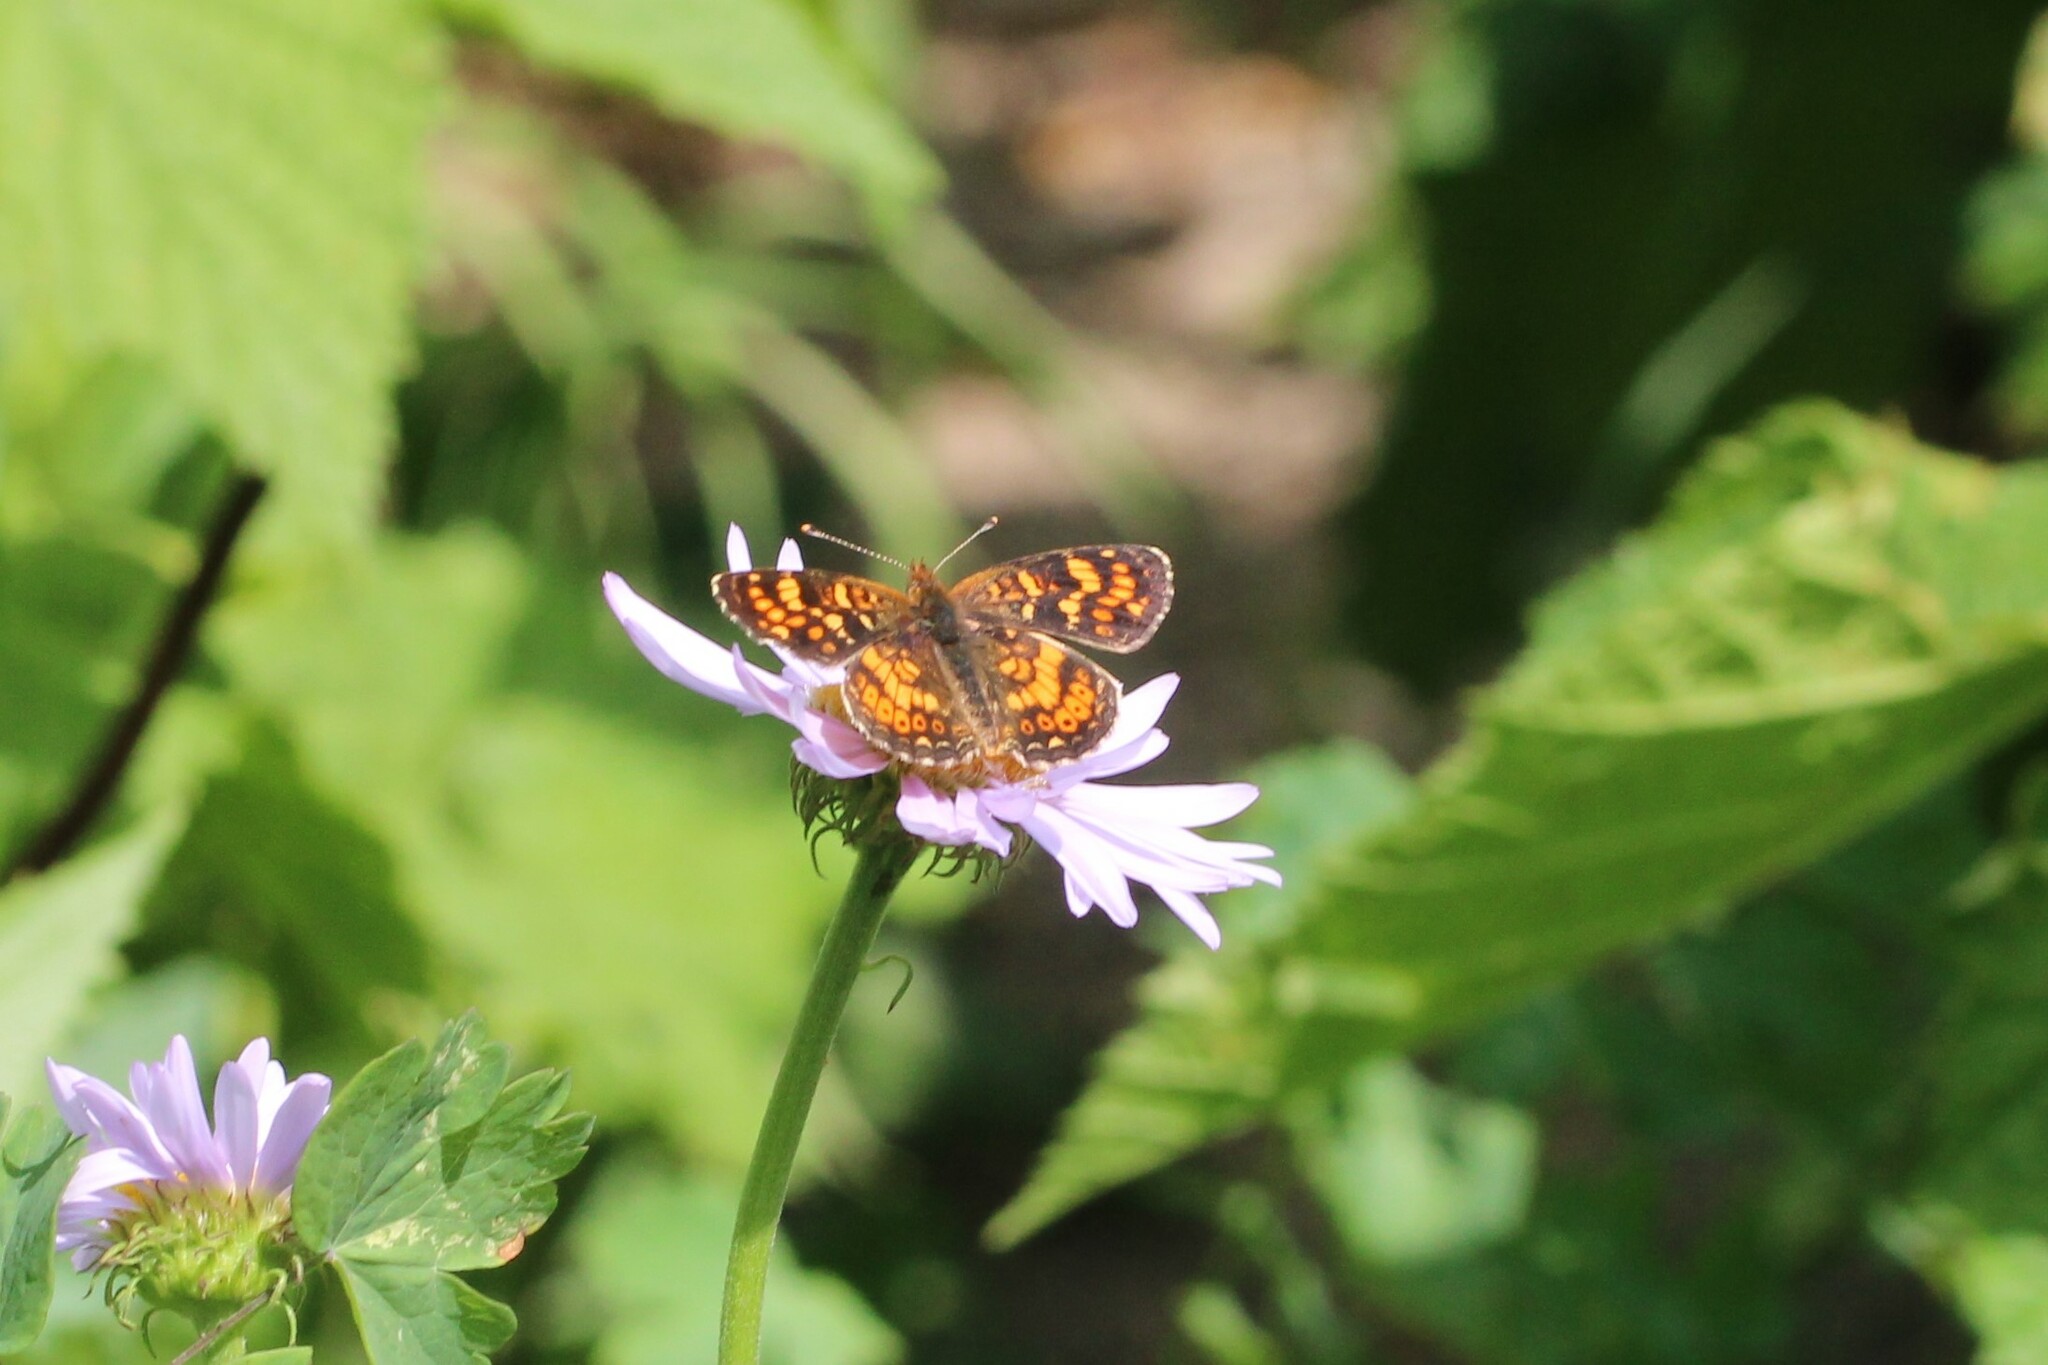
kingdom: Animalia
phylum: Arthropoda
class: Insecta
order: Lepidoptera
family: Nymphalidae
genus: Phyciodes
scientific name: Phyciodes tharos
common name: Pearl crescent
